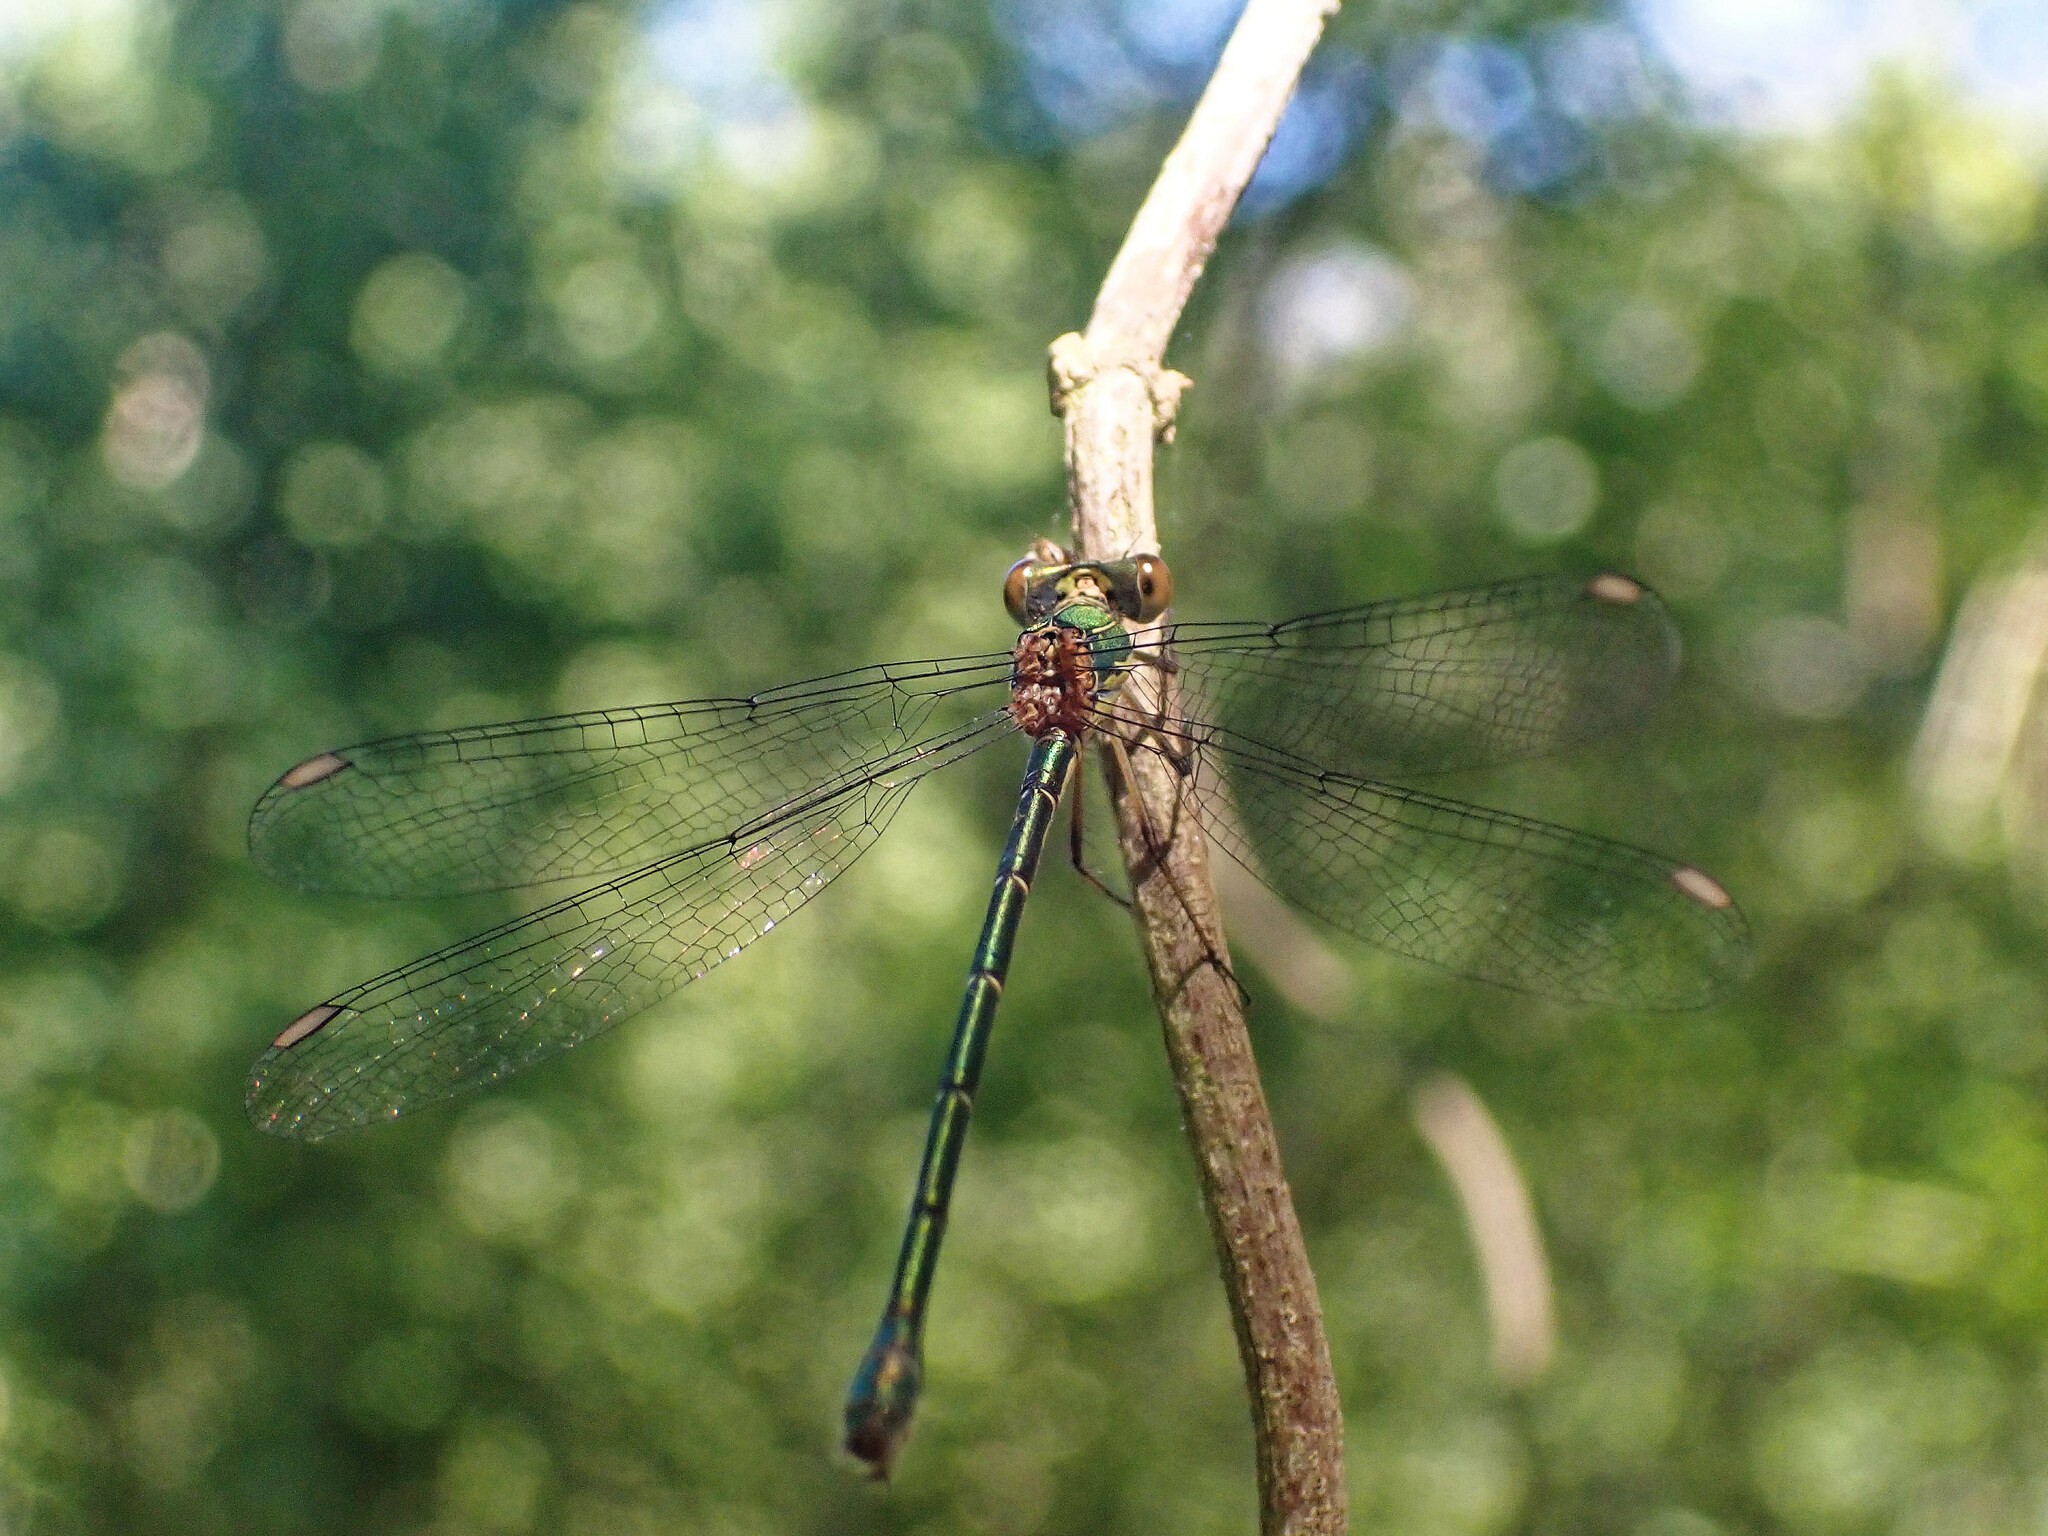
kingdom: Animalia
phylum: Arthropoda
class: Insecta
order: Odonata
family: Lestidae
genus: Chalcolestes
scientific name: Chalcolestes viridis
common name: Green emerald damselfly
